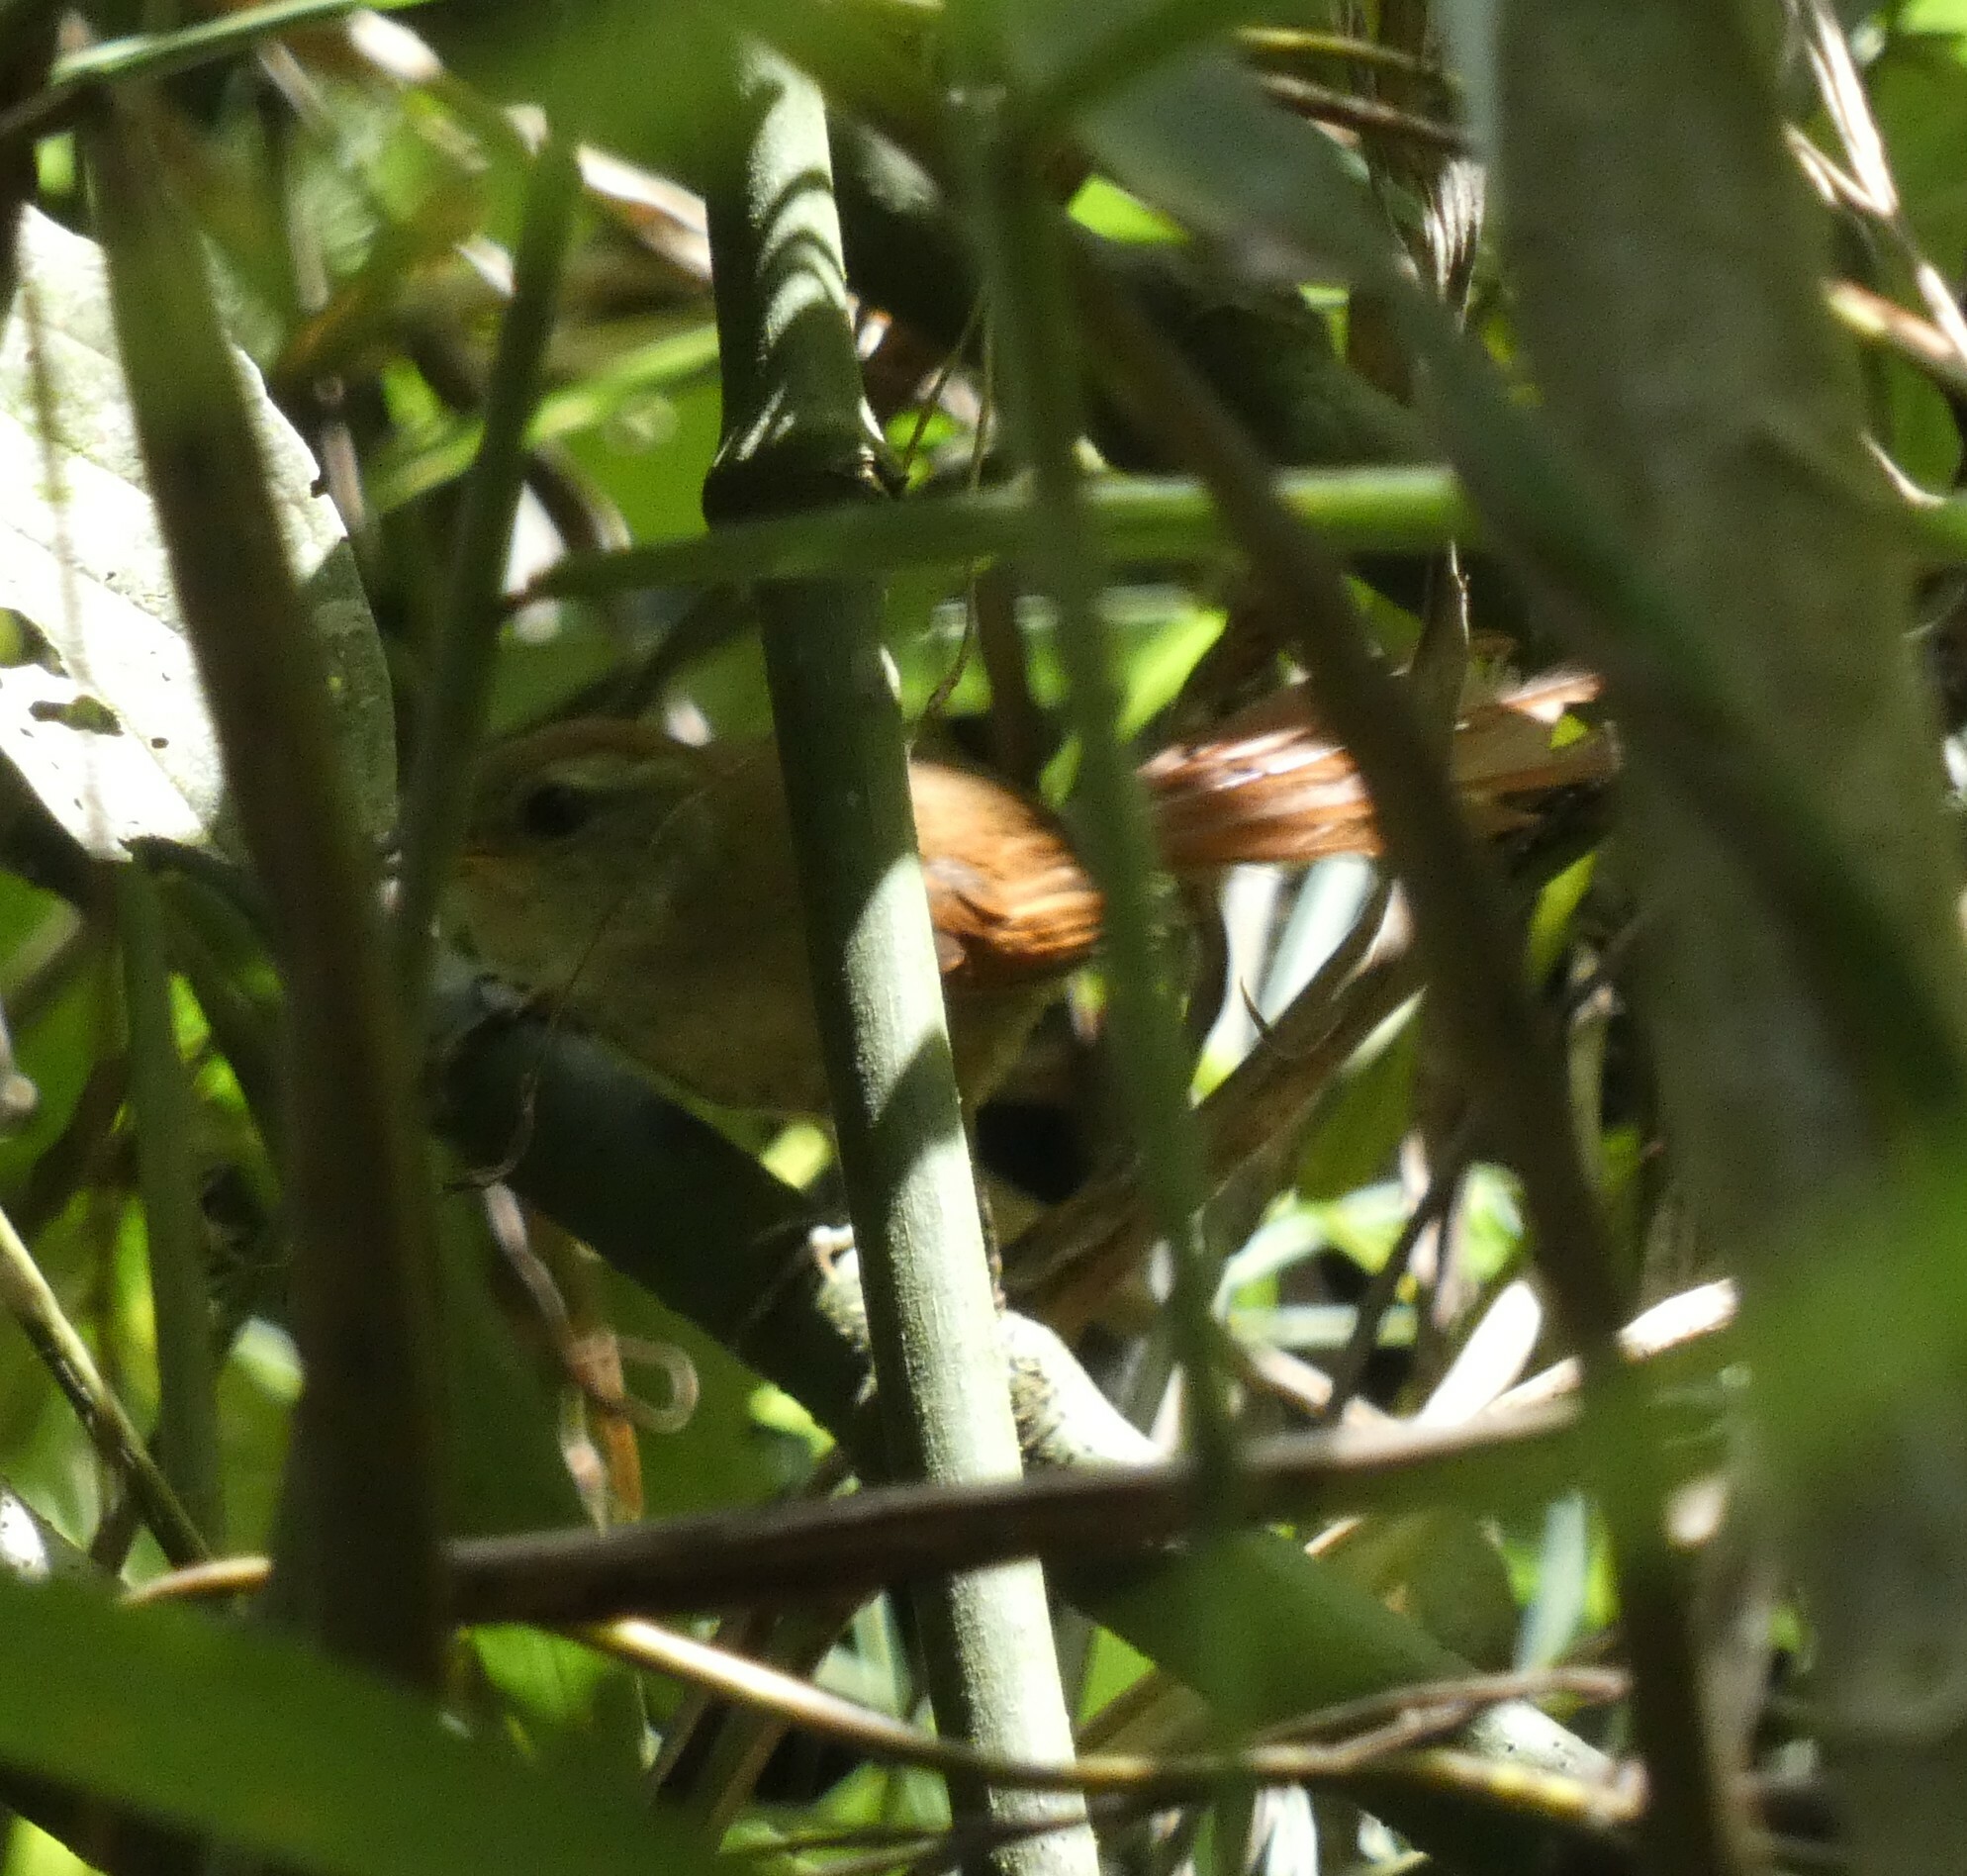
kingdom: Animalia
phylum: Chordata
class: Aves
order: Passeriformes
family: Furnariidae
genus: Synallaxis
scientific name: Synallaxis ruficapilla
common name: Rufous-capped spinetail
